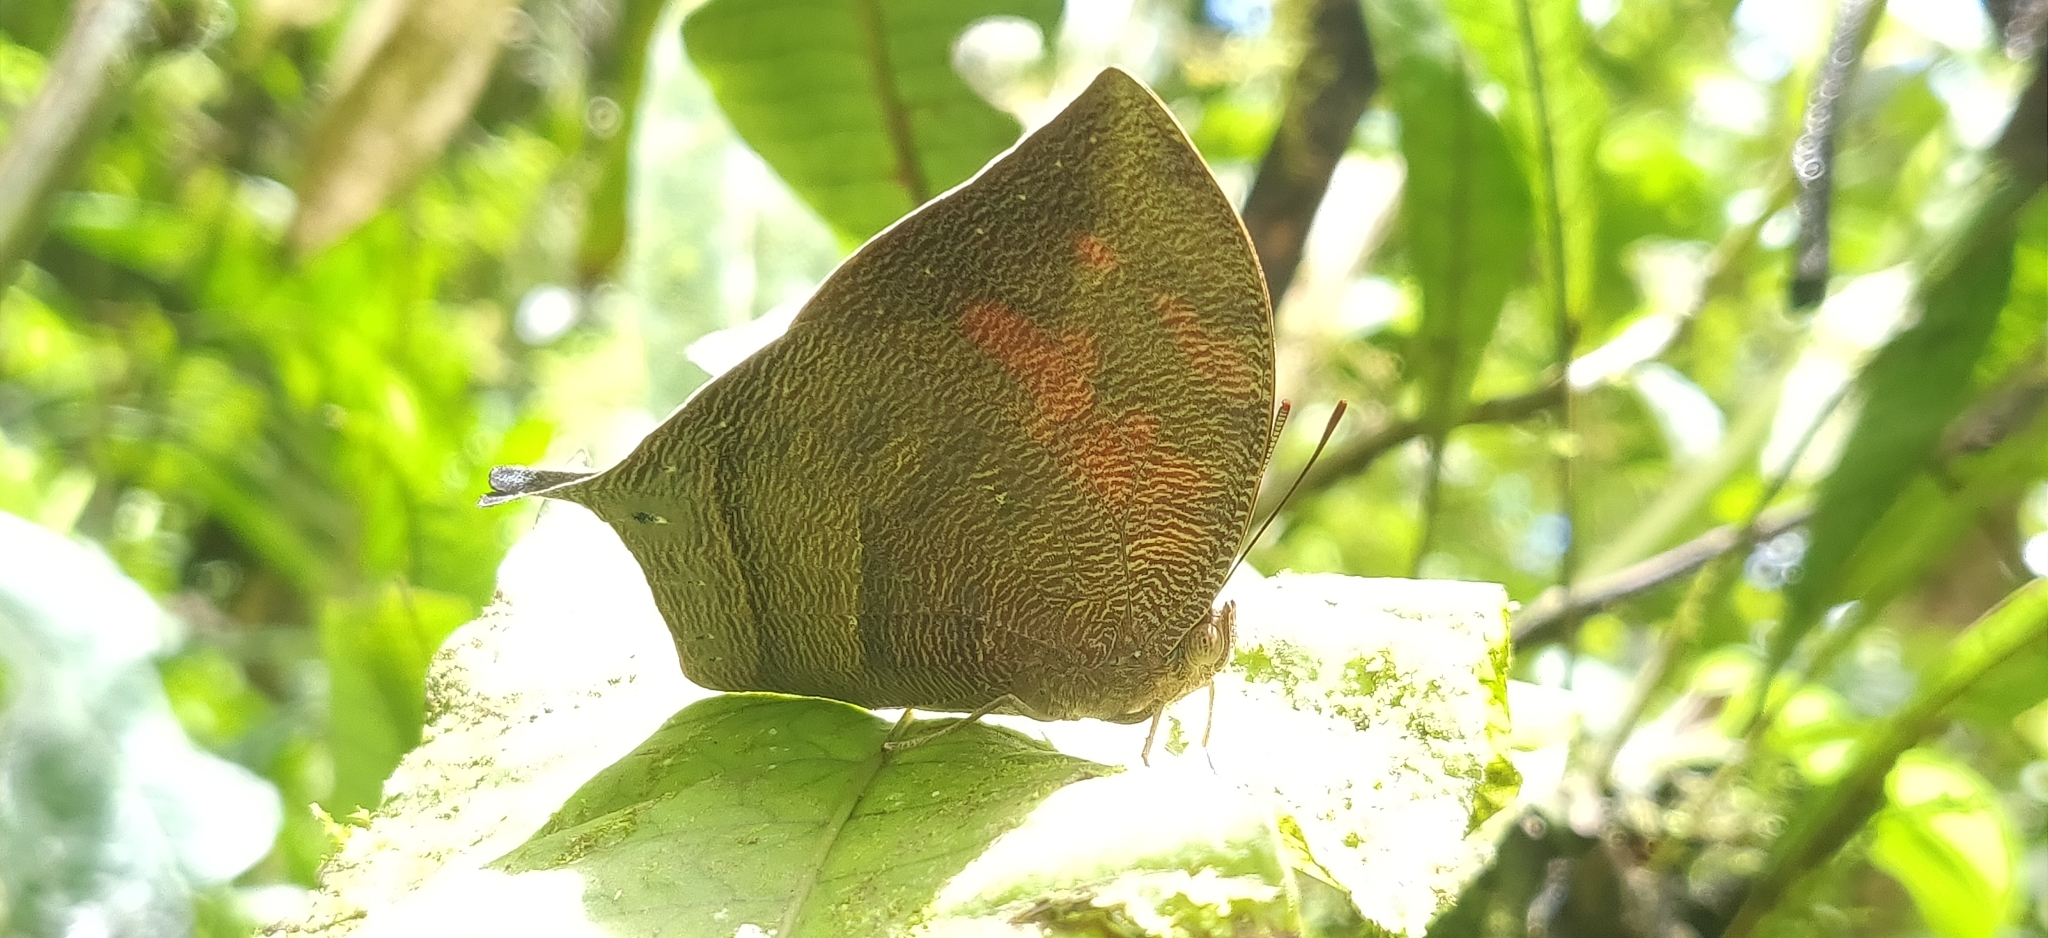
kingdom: Animalia
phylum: Arthropoda
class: Insecta
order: Lepidoptera
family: Nymphalidae
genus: Fountainea
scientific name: Fountainea
